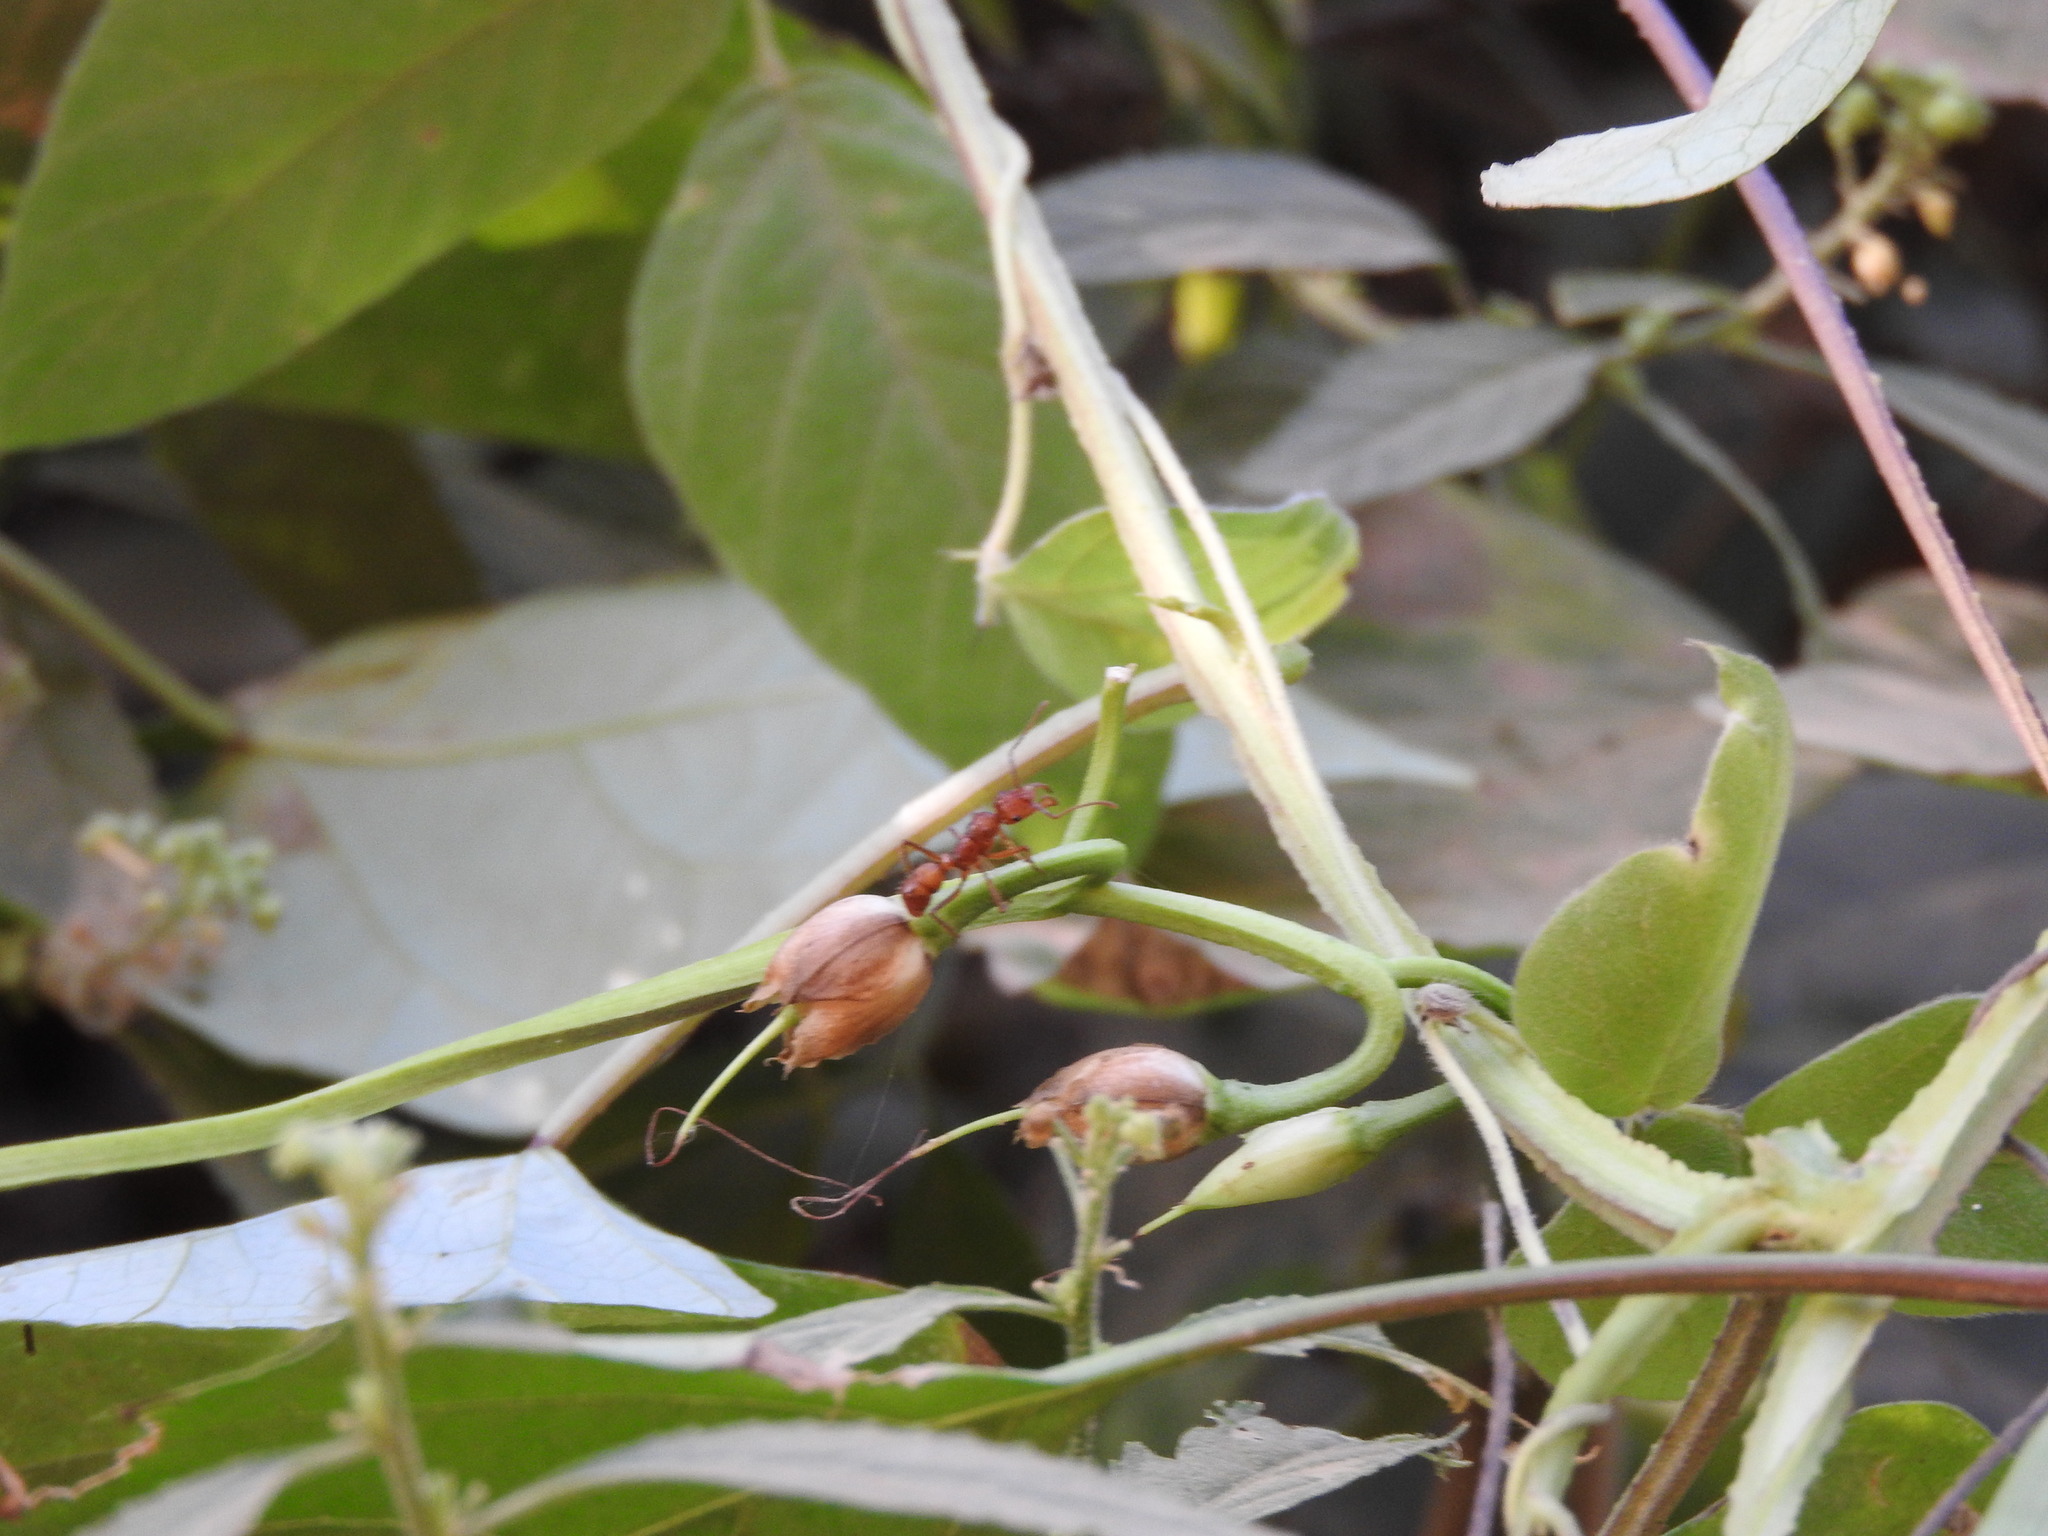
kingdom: Plantae
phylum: Tracheophyta
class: Magnoliopsida
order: Solanales
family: Convolvulaceae
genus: Ipomoea
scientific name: Ipomoea splendor-sylvae
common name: Morning glory
